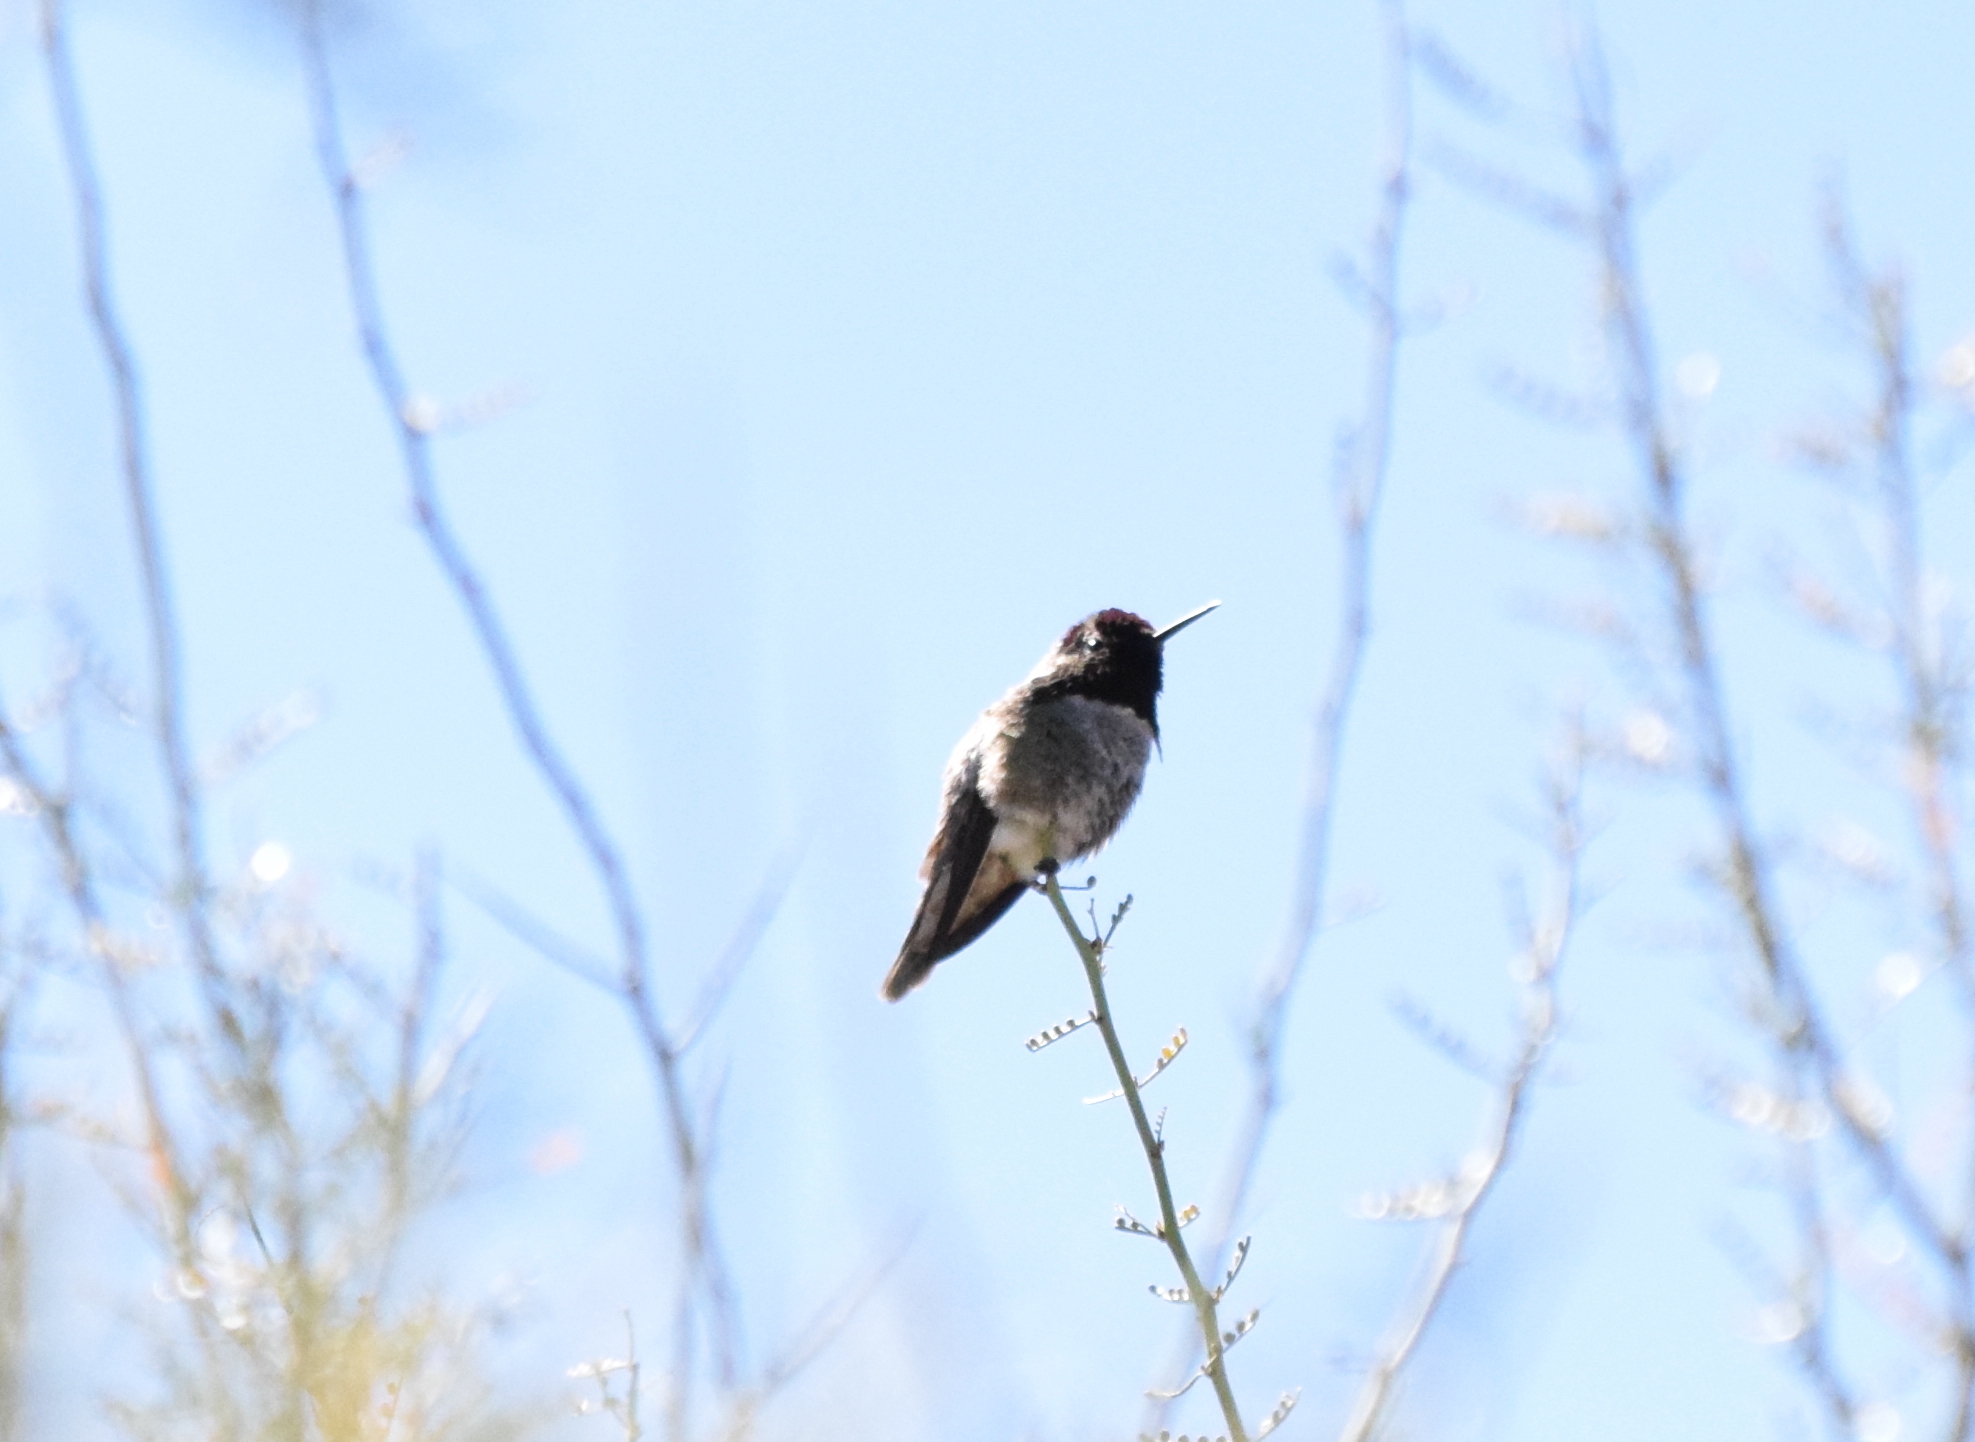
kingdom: Animalia
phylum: Chordata
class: Aves
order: Apodiformes
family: Trochilidae
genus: Calypte
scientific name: Calypte costae
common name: Costa's hummingbird
